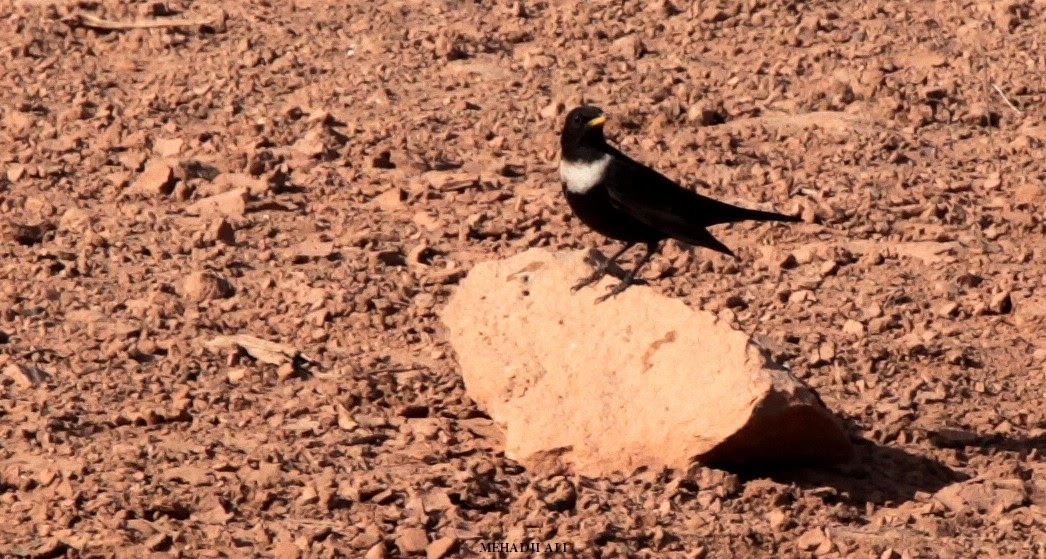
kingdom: Animalia
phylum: Chordata
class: Aves
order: Passeriformes
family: Turdidae
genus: Turdus
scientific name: Turdus torquatus
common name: Ring ouzel
